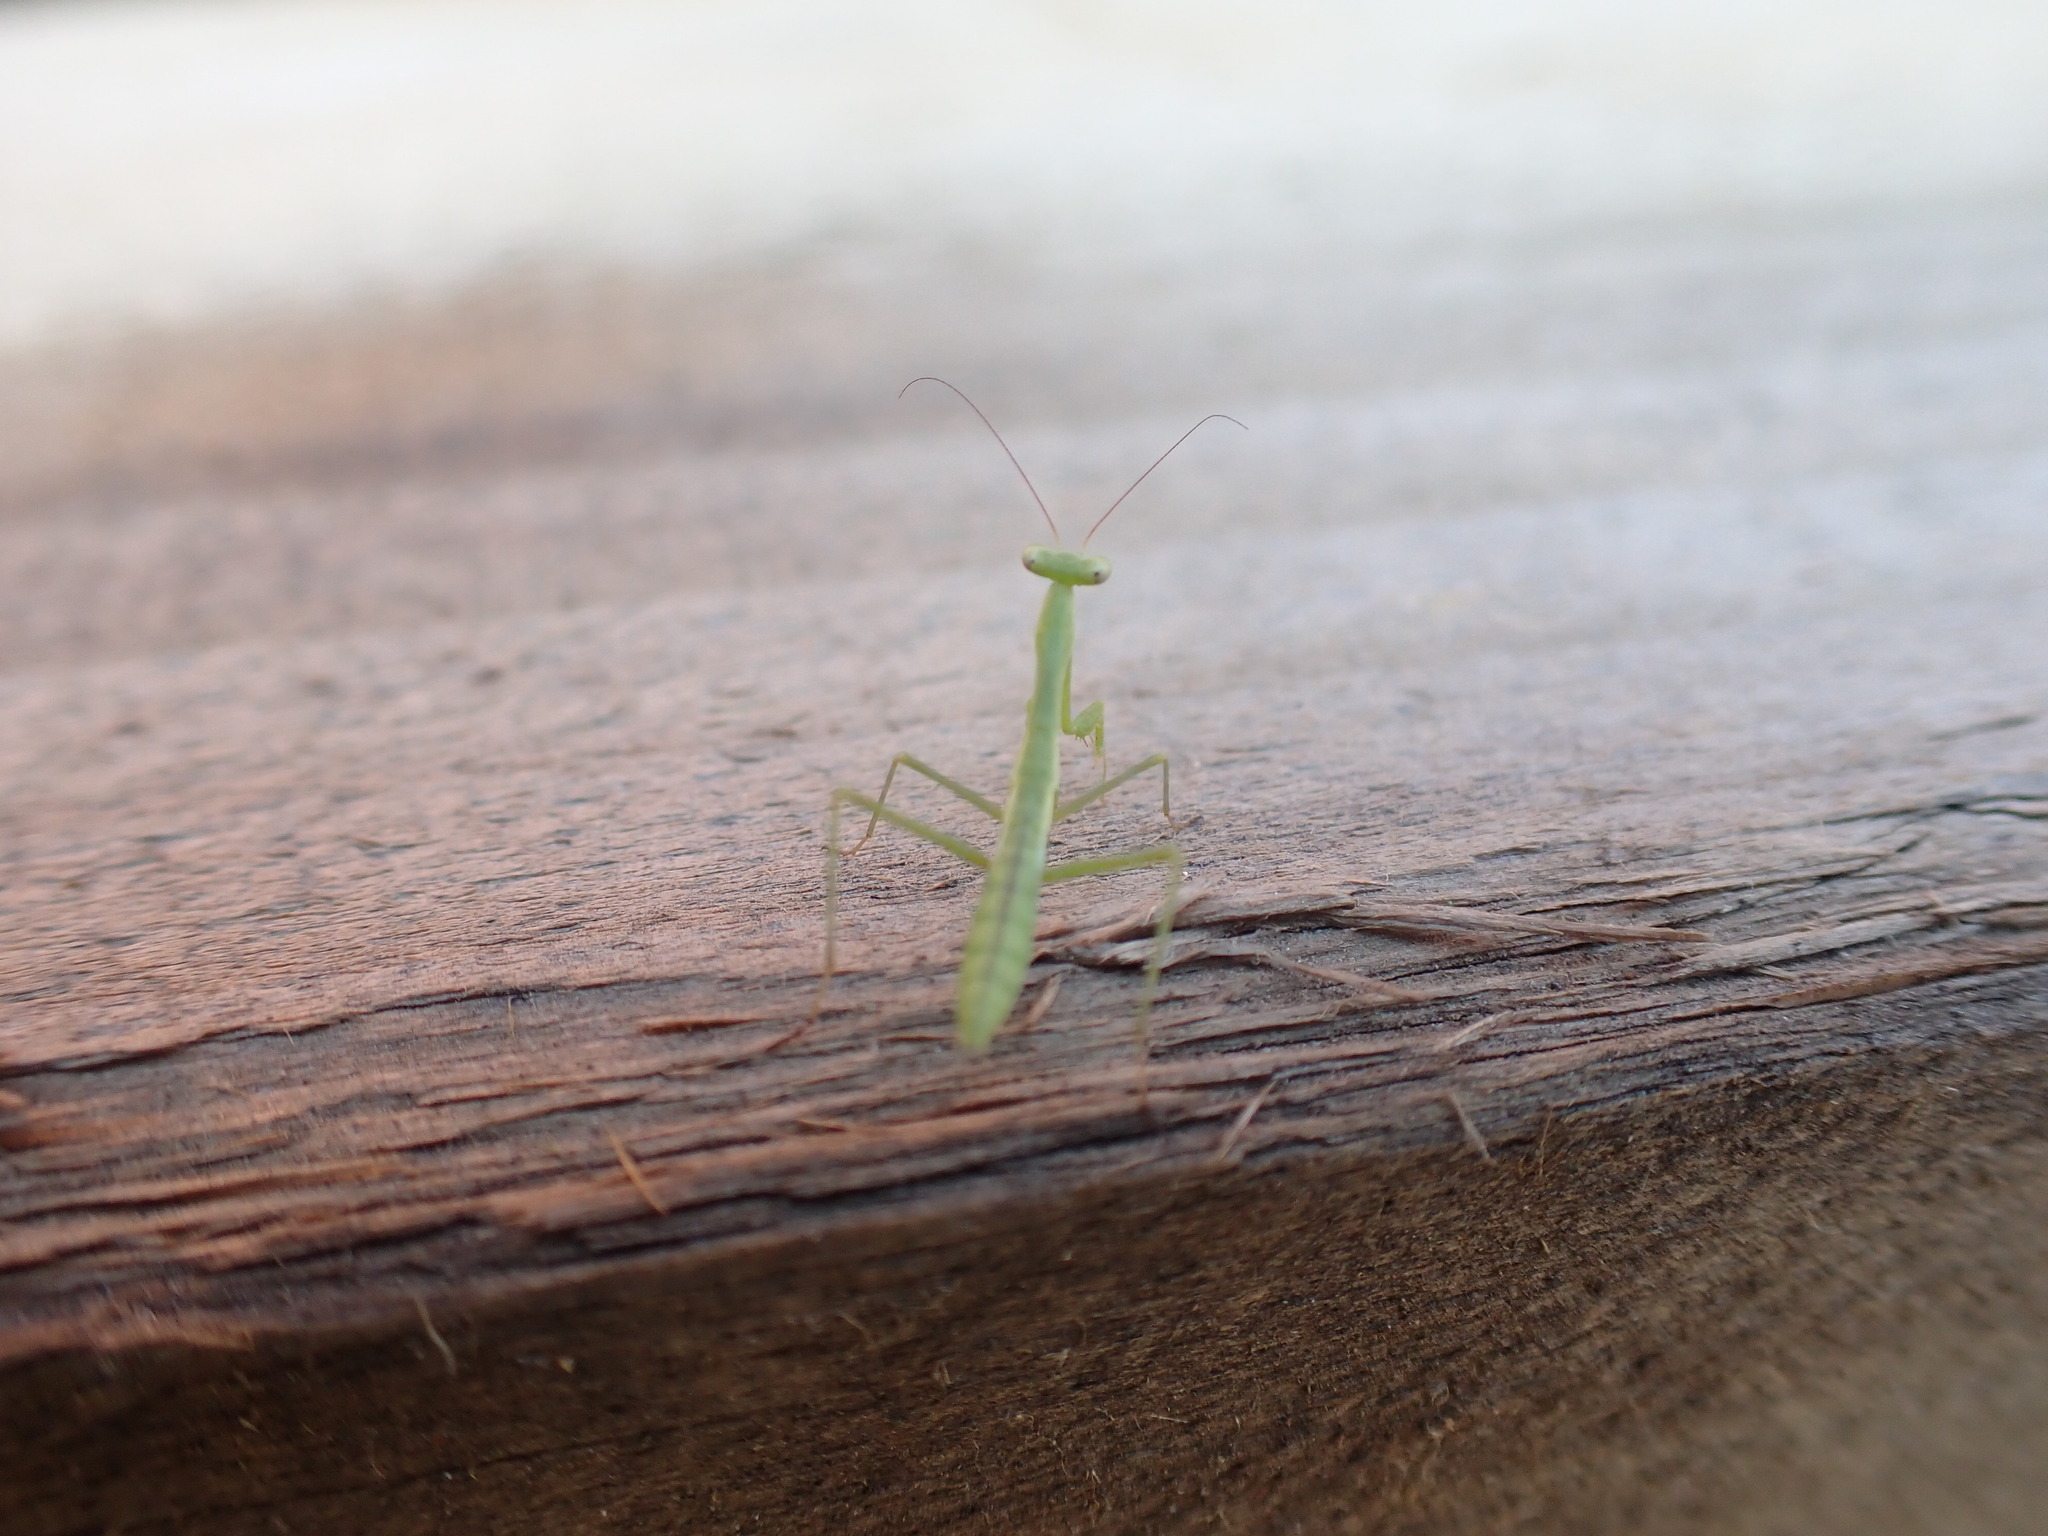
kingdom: Animalia
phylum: Arthropoda
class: Insecta
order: Mantodea
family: Miomantidae
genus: Miomantis
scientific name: Miomantis caffra
